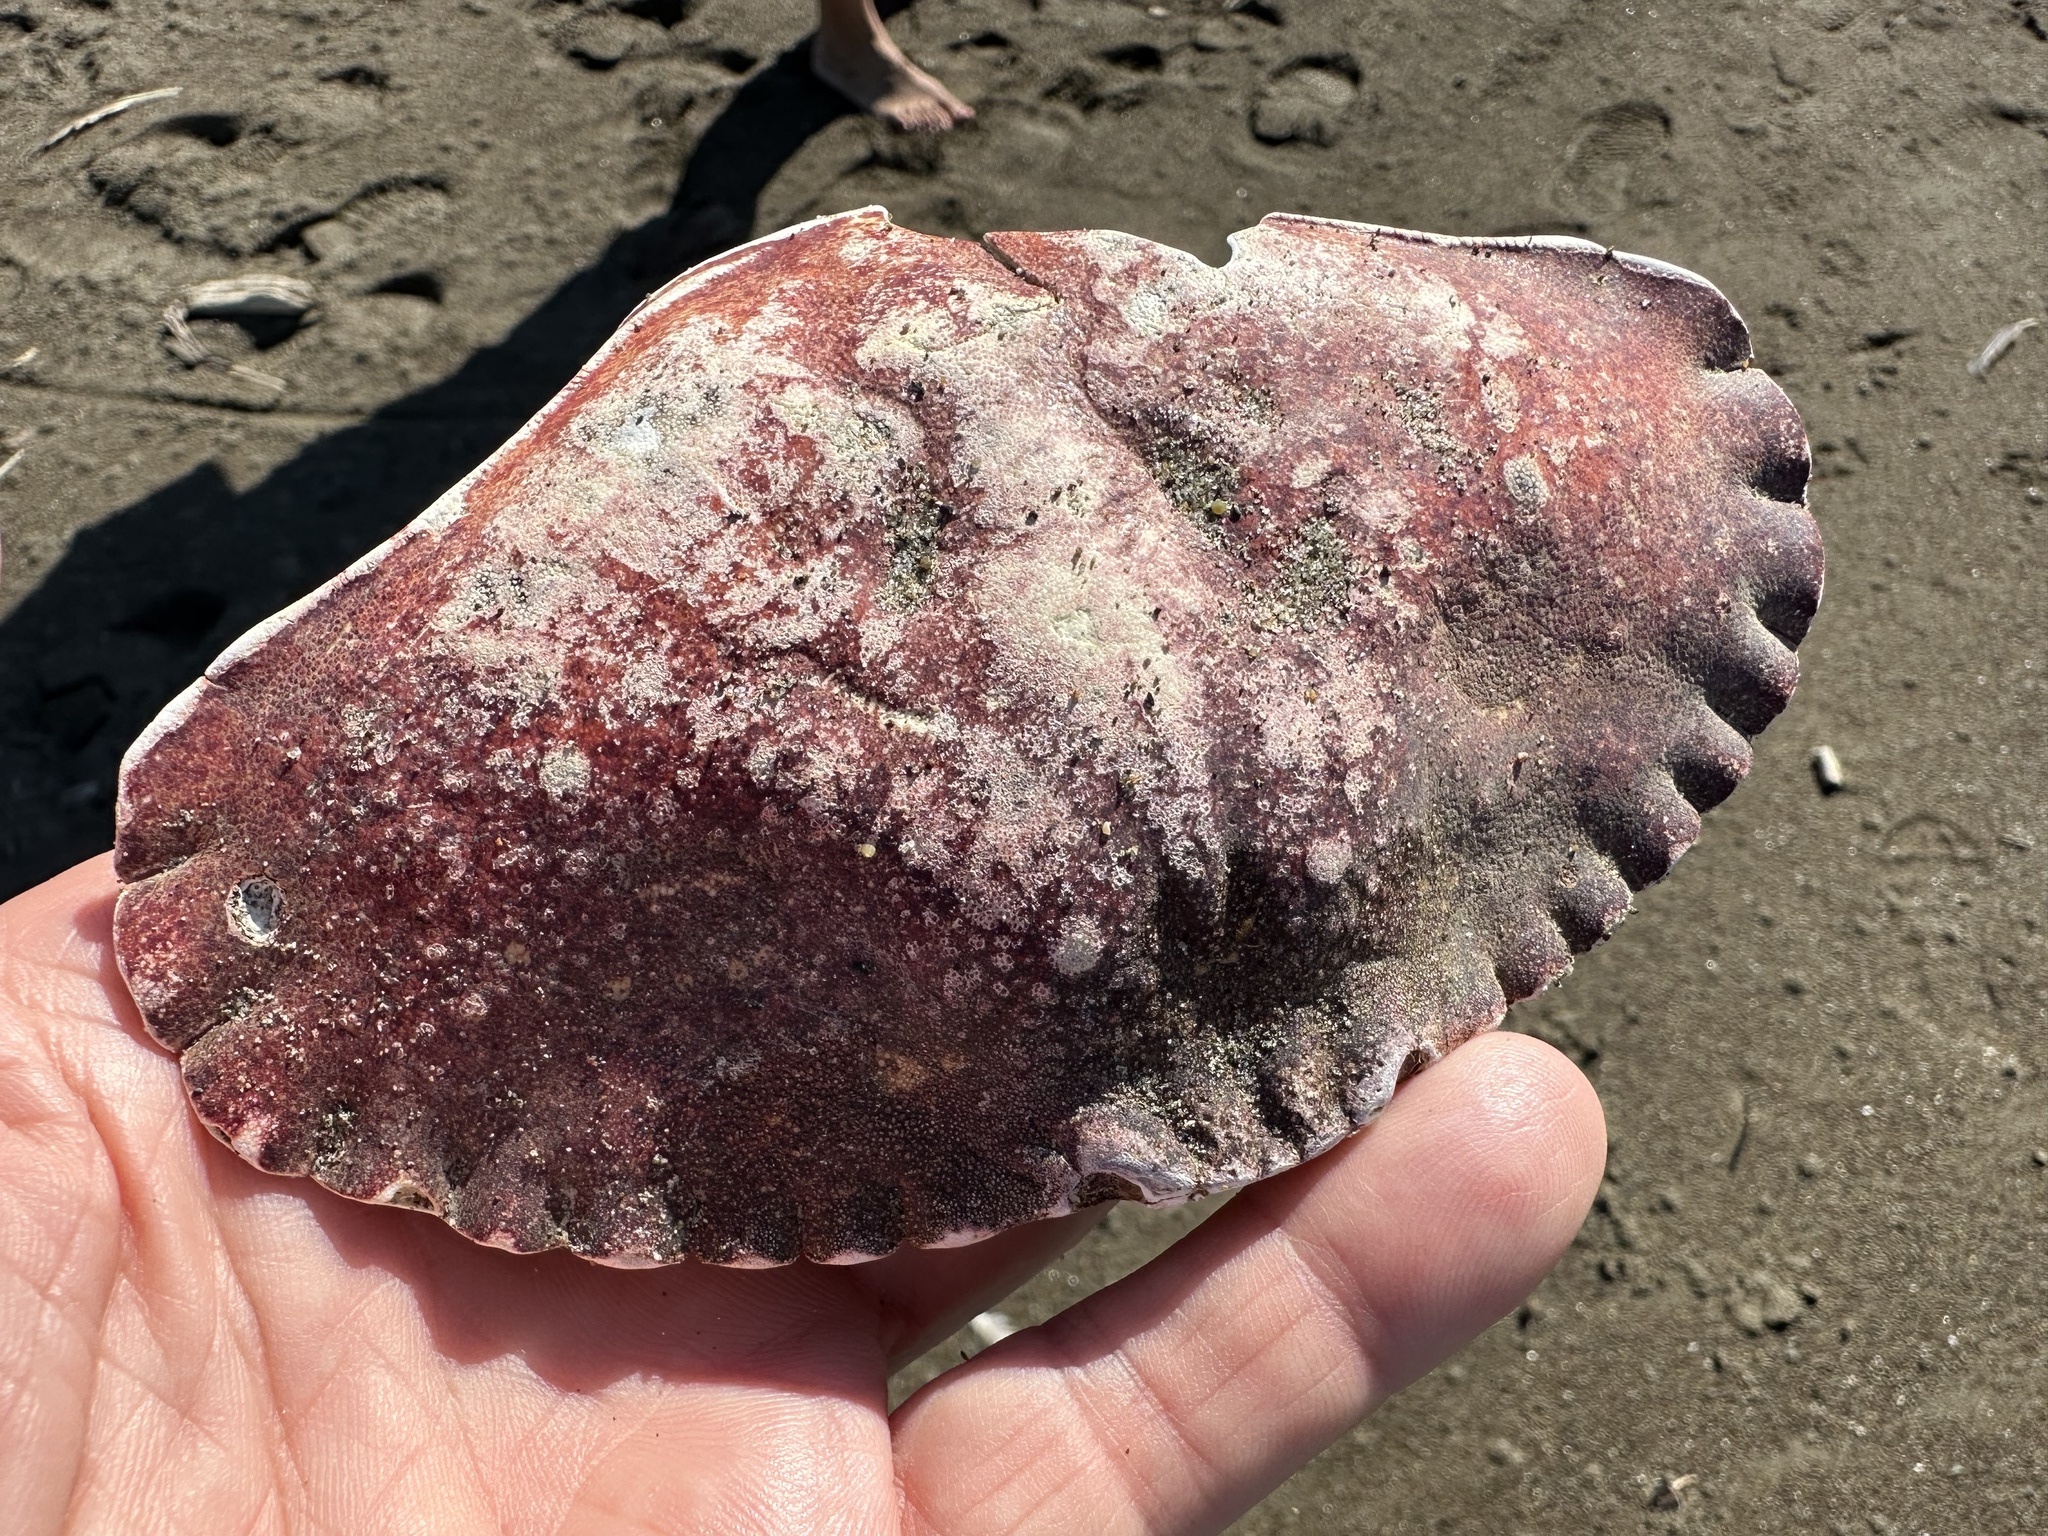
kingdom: Animalia
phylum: Arthropoda
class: Malacostraca
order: Decapoda
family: Cancridae
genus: Cancer
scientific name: Cancer productus
